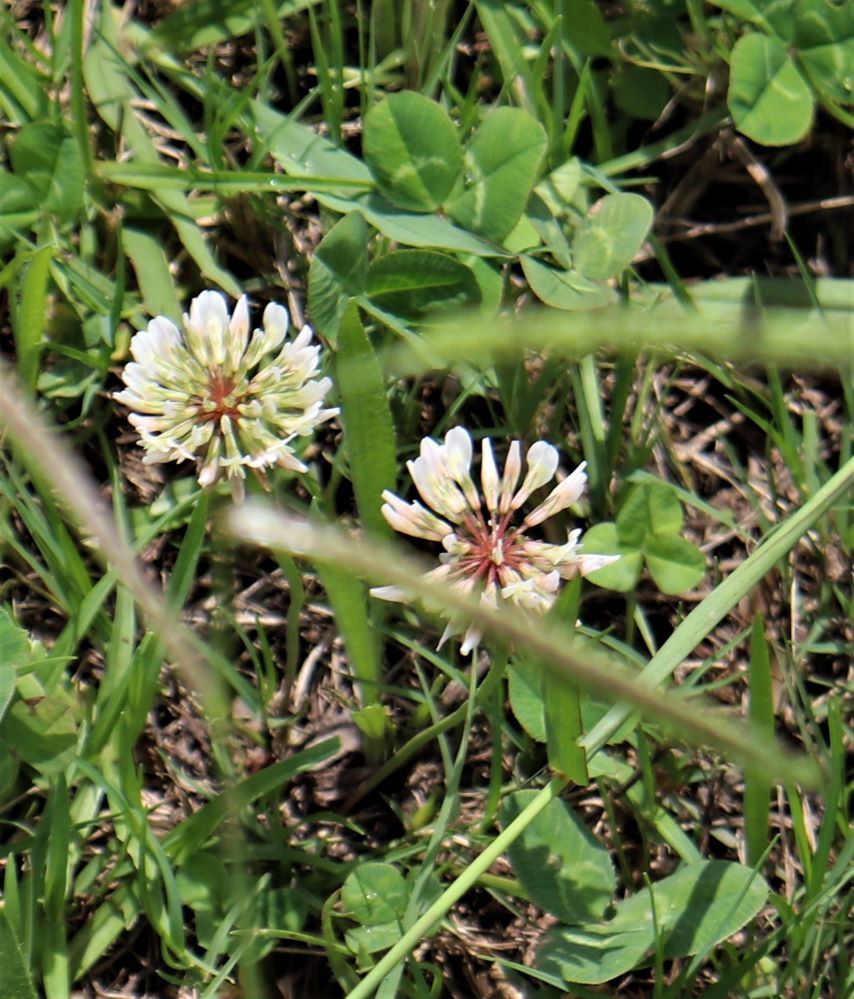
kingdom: Plantae
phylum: Tracheophyta
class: Magnoliopsida
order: Fabales
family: Fabaceae
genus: Trifolium
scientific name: Trifolium repens
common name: White clover
